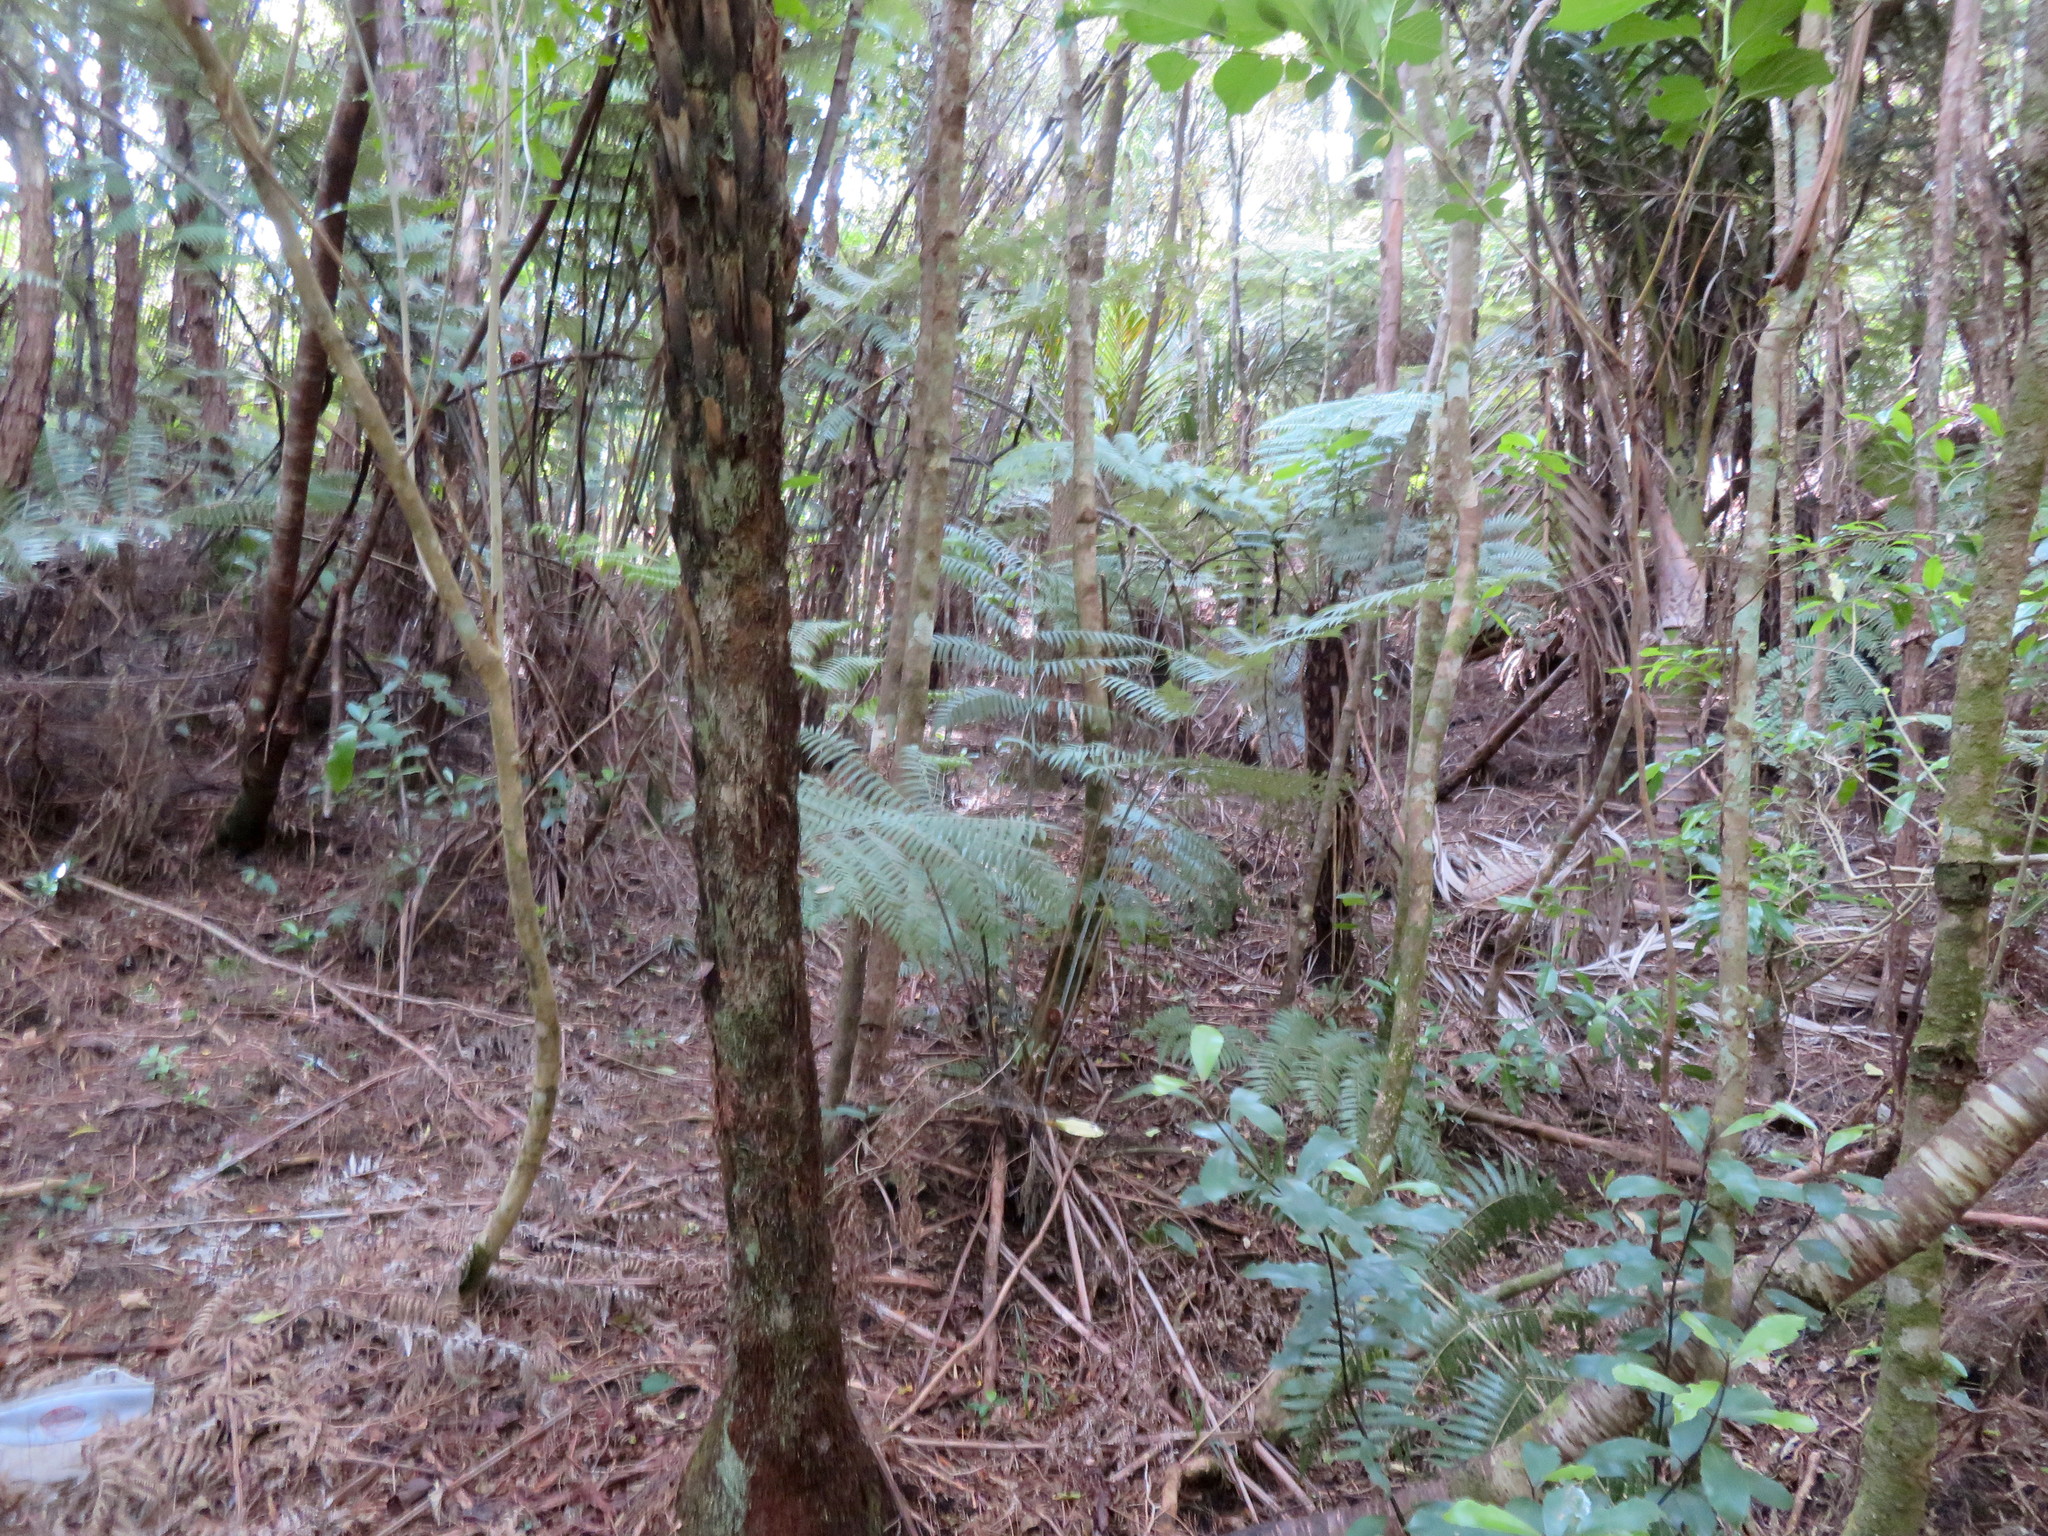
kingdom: Plantae
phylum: Tracheophyta
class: Polypodiopsida
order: Cyatheales
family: Cyatheaceae
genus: Alsophila
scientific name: Alsophila dealbata
